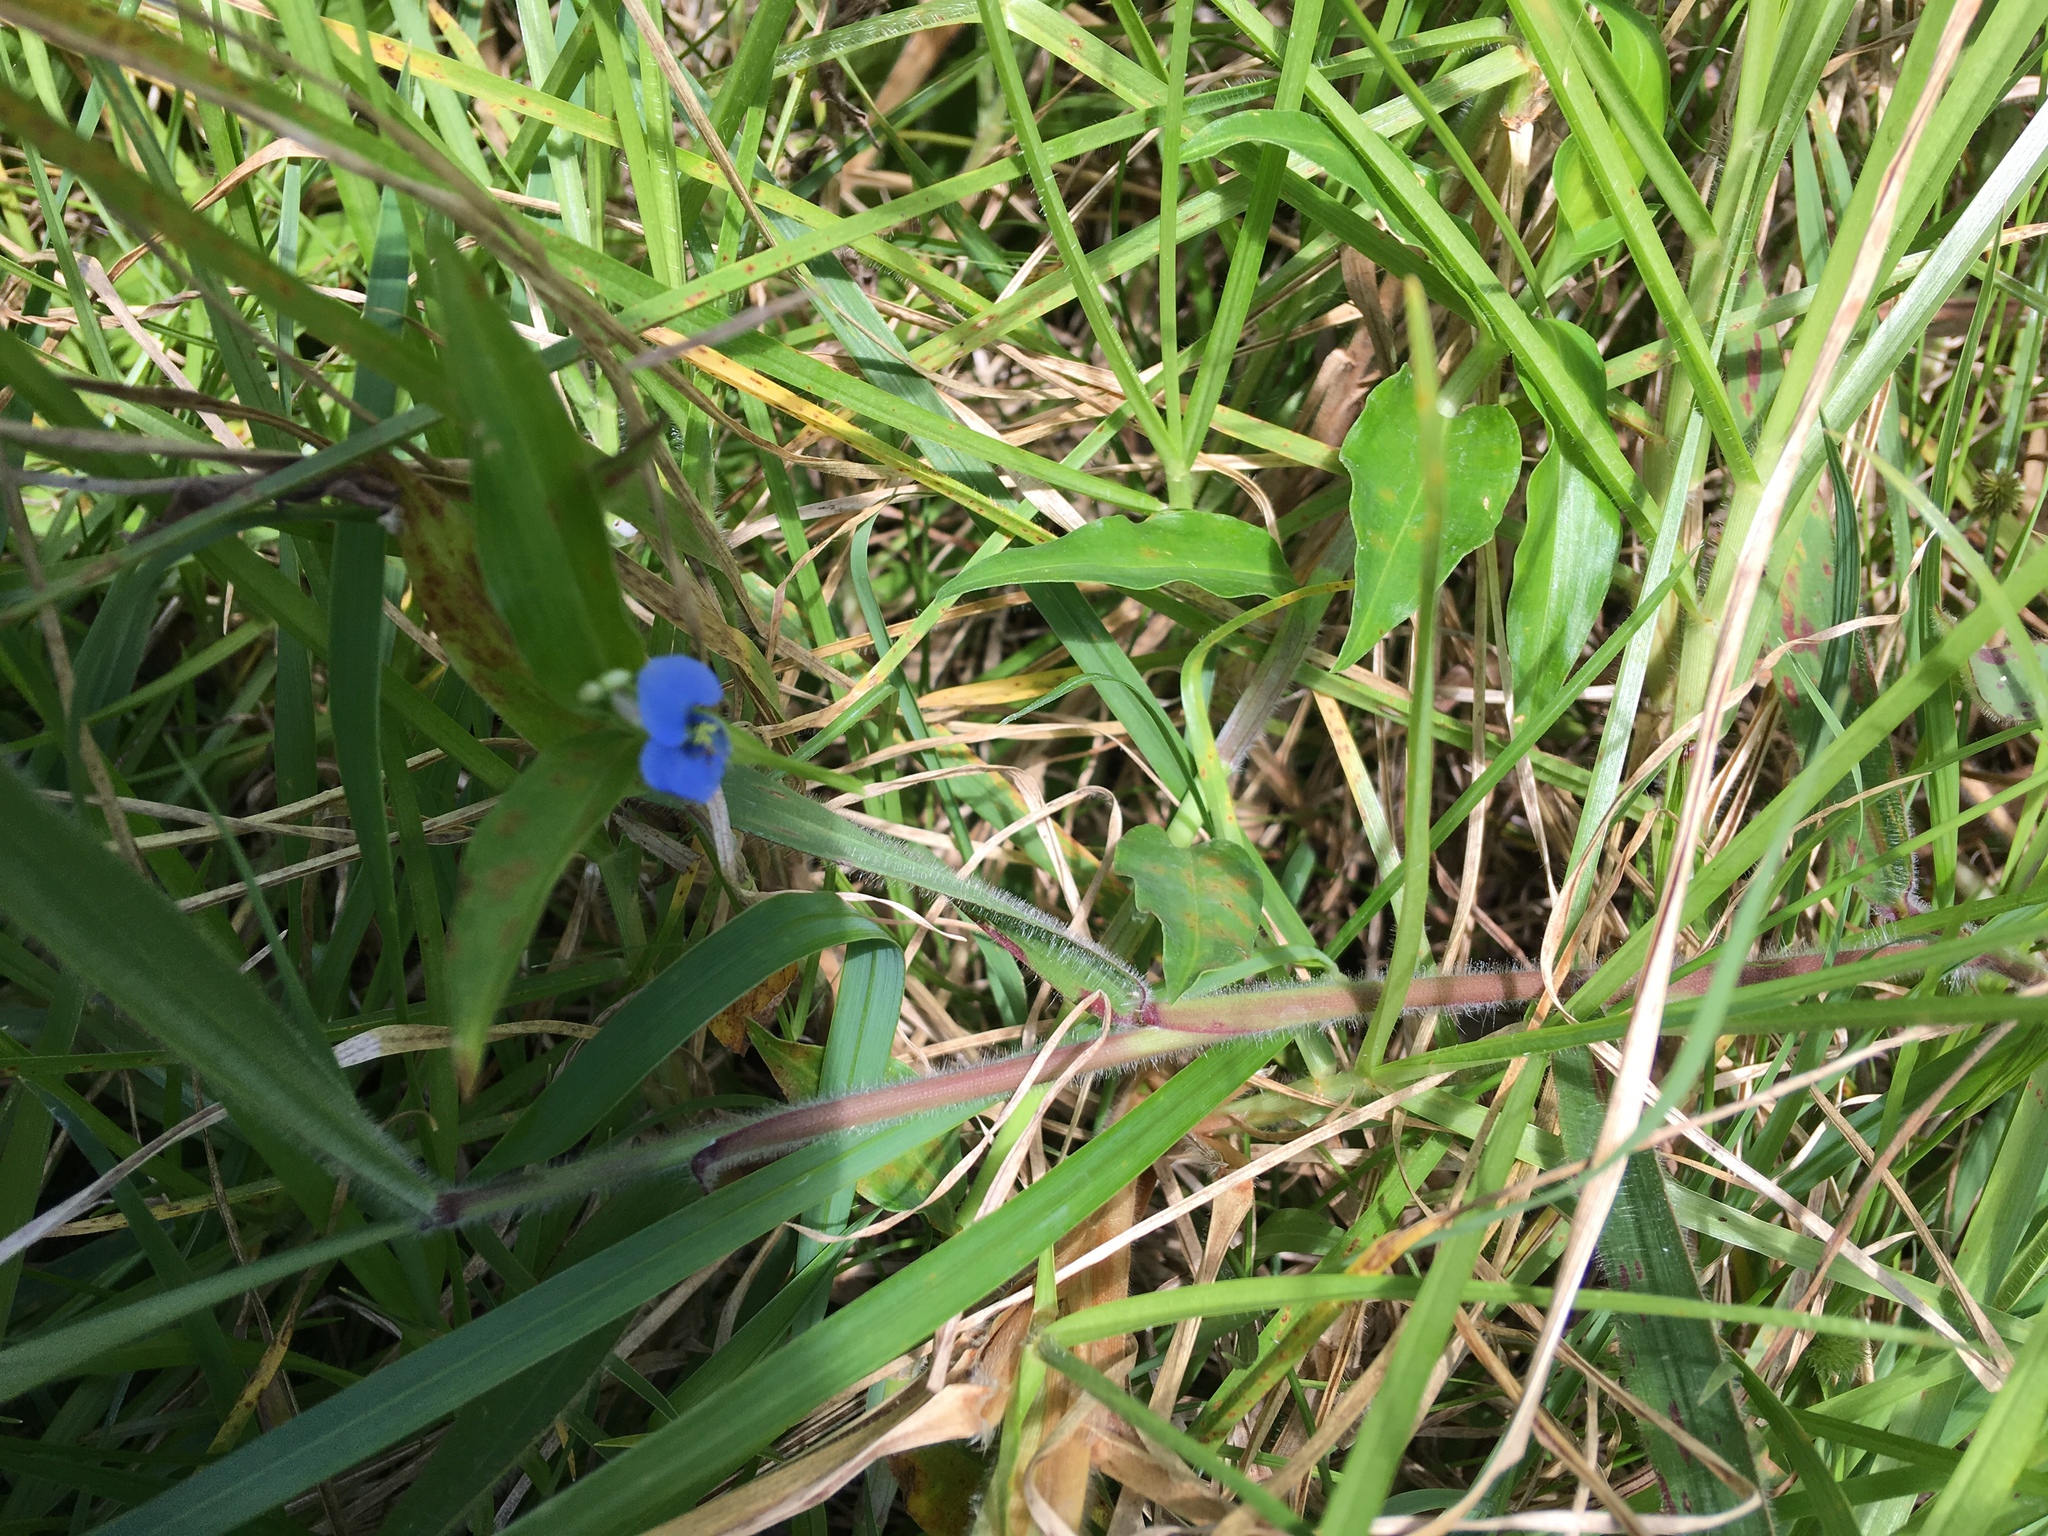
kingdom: Plantae
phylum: Tracheophyta
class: Liliopsida
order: Commelinales
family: Commelinaceae
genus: Commelina
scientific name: Commelina diffusa
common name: Climbing dayflower
